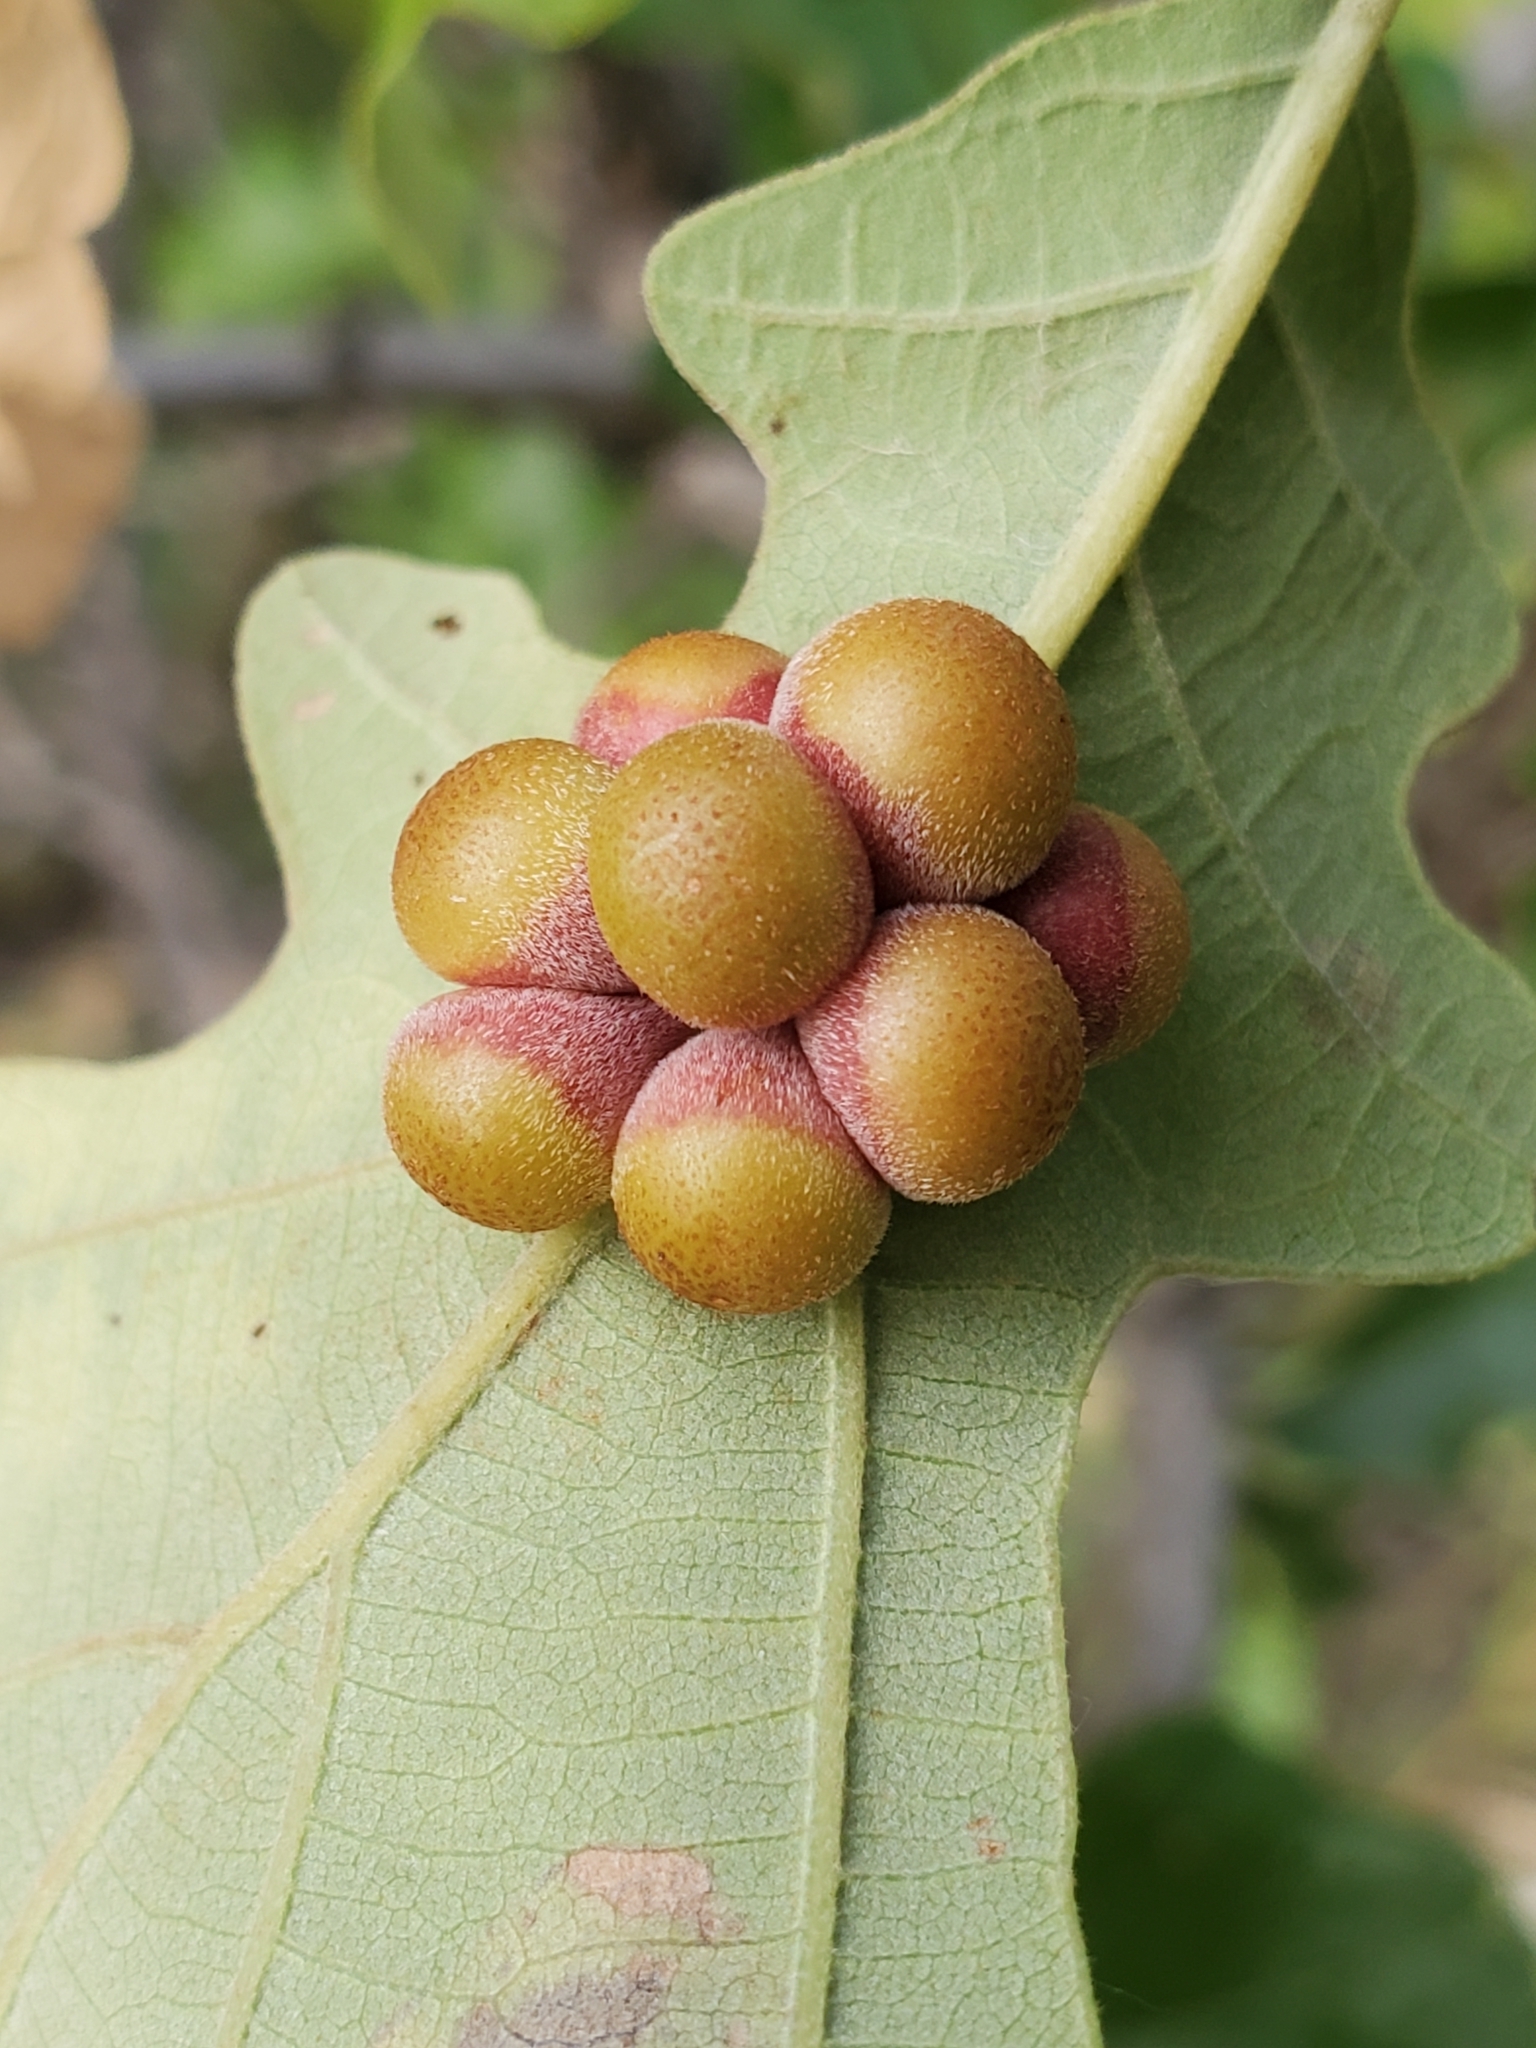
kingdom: Animalia
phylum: Arthropoda
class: Insecta
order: Hymenoptera
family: Cynipidae
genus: Andricus
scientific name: Andricus
